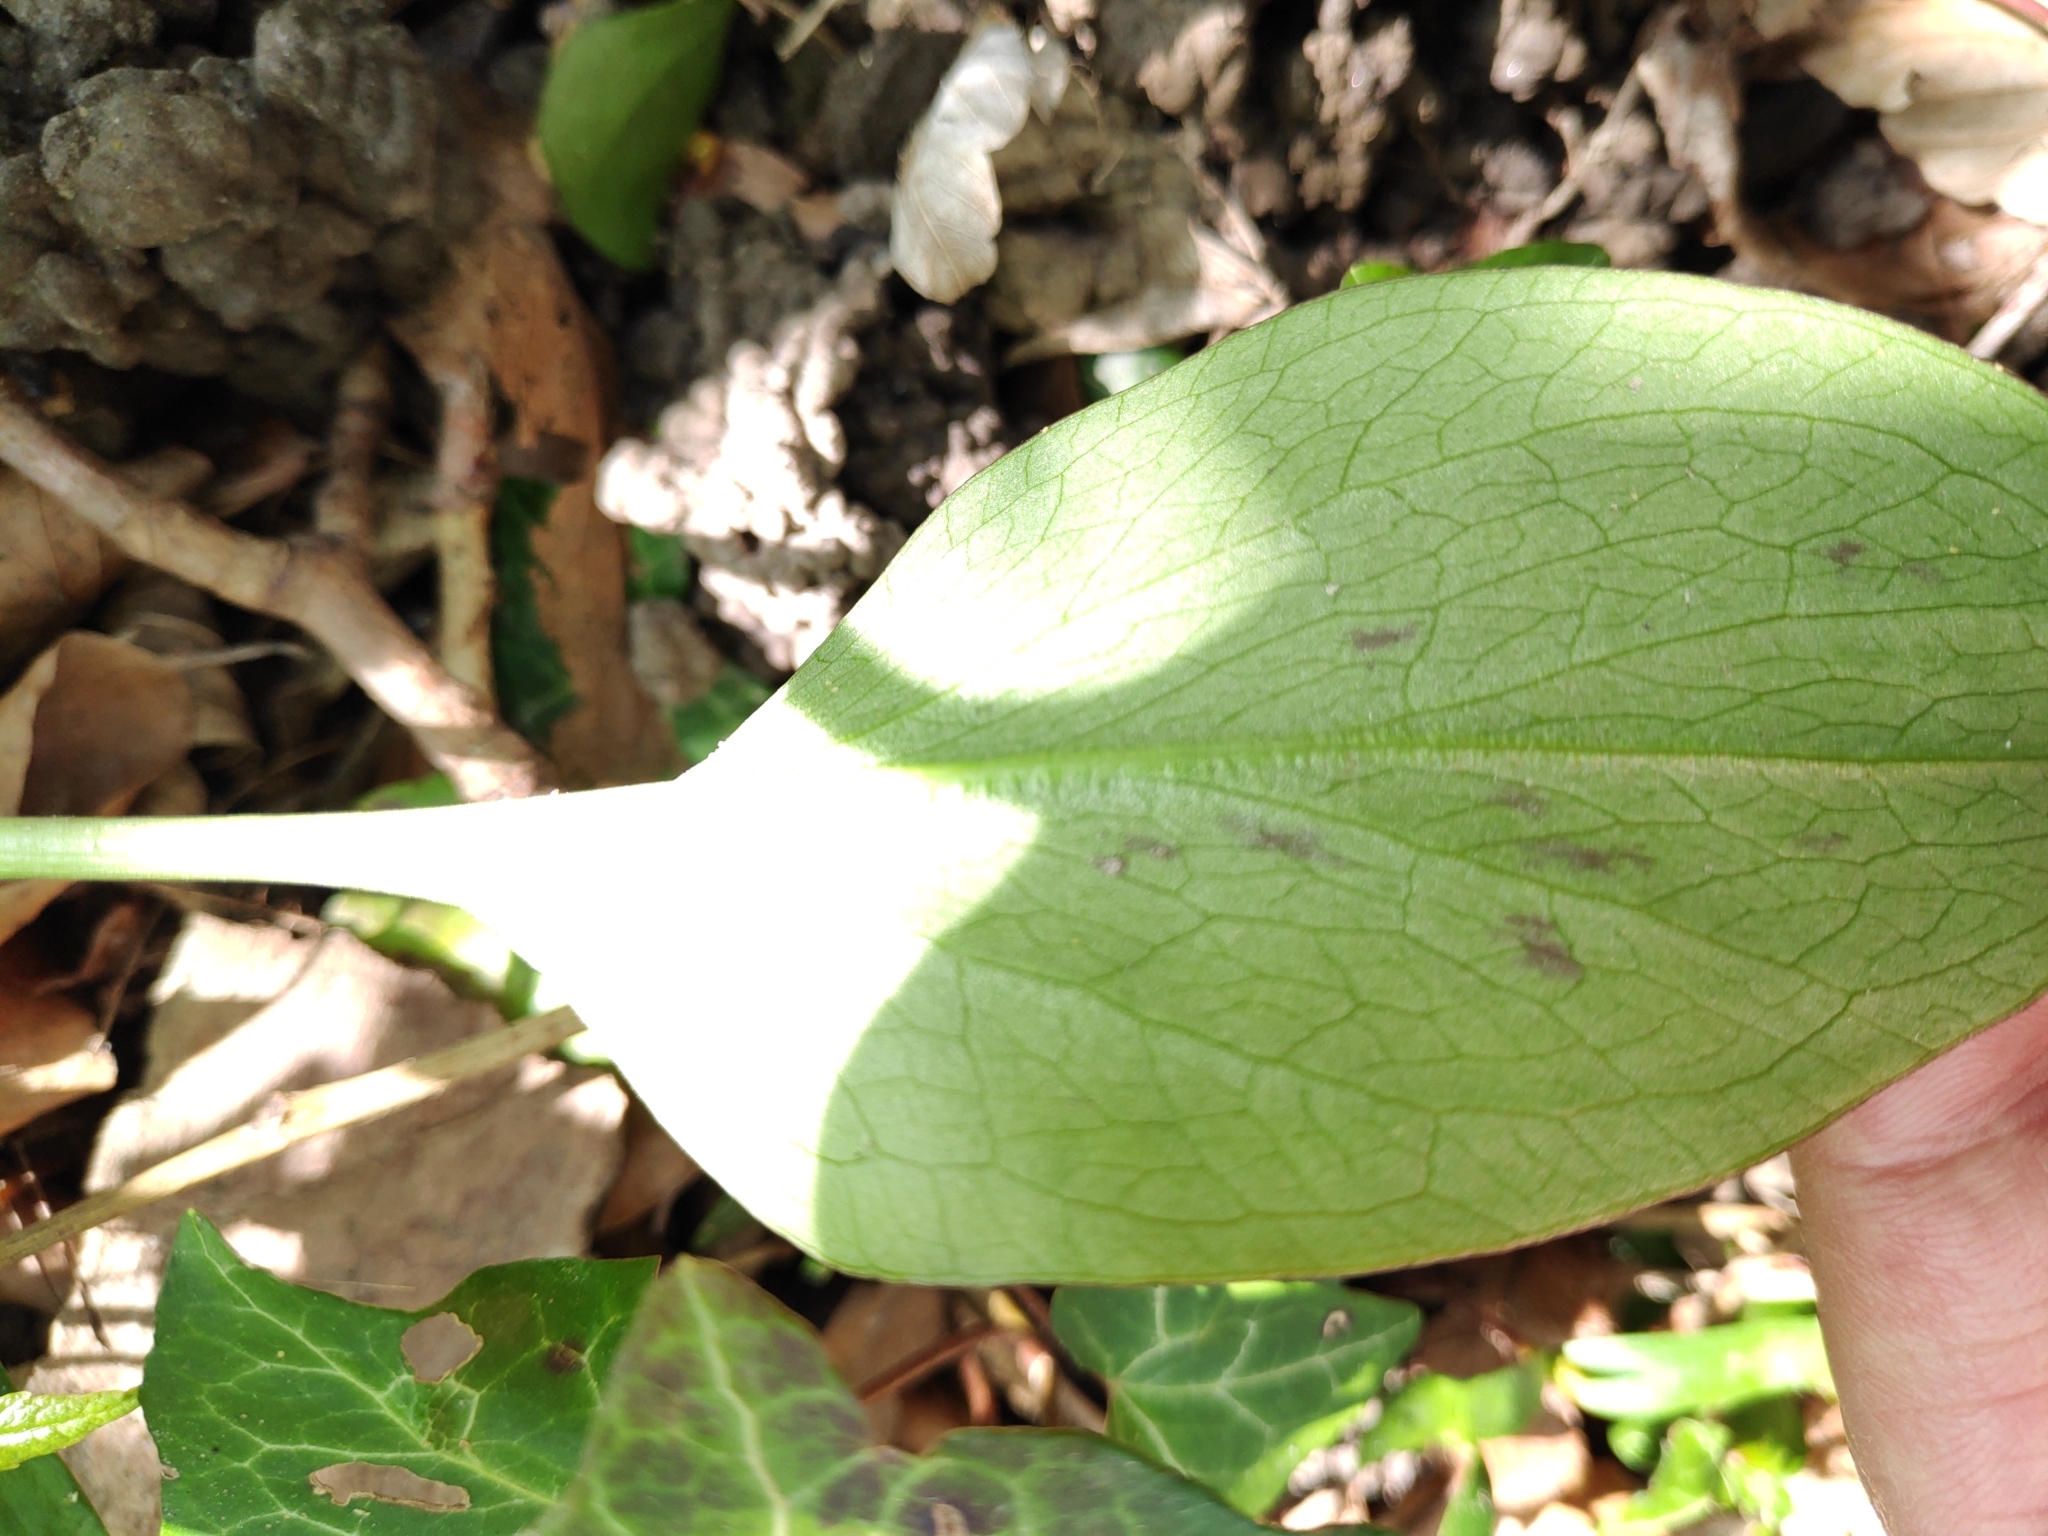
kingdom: Plantae
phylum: Tracheophyta
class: Liliopsida
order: Alismatales
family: Araceae
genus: Arum
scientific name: Arum maculatum
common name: Lords-and-ladies
